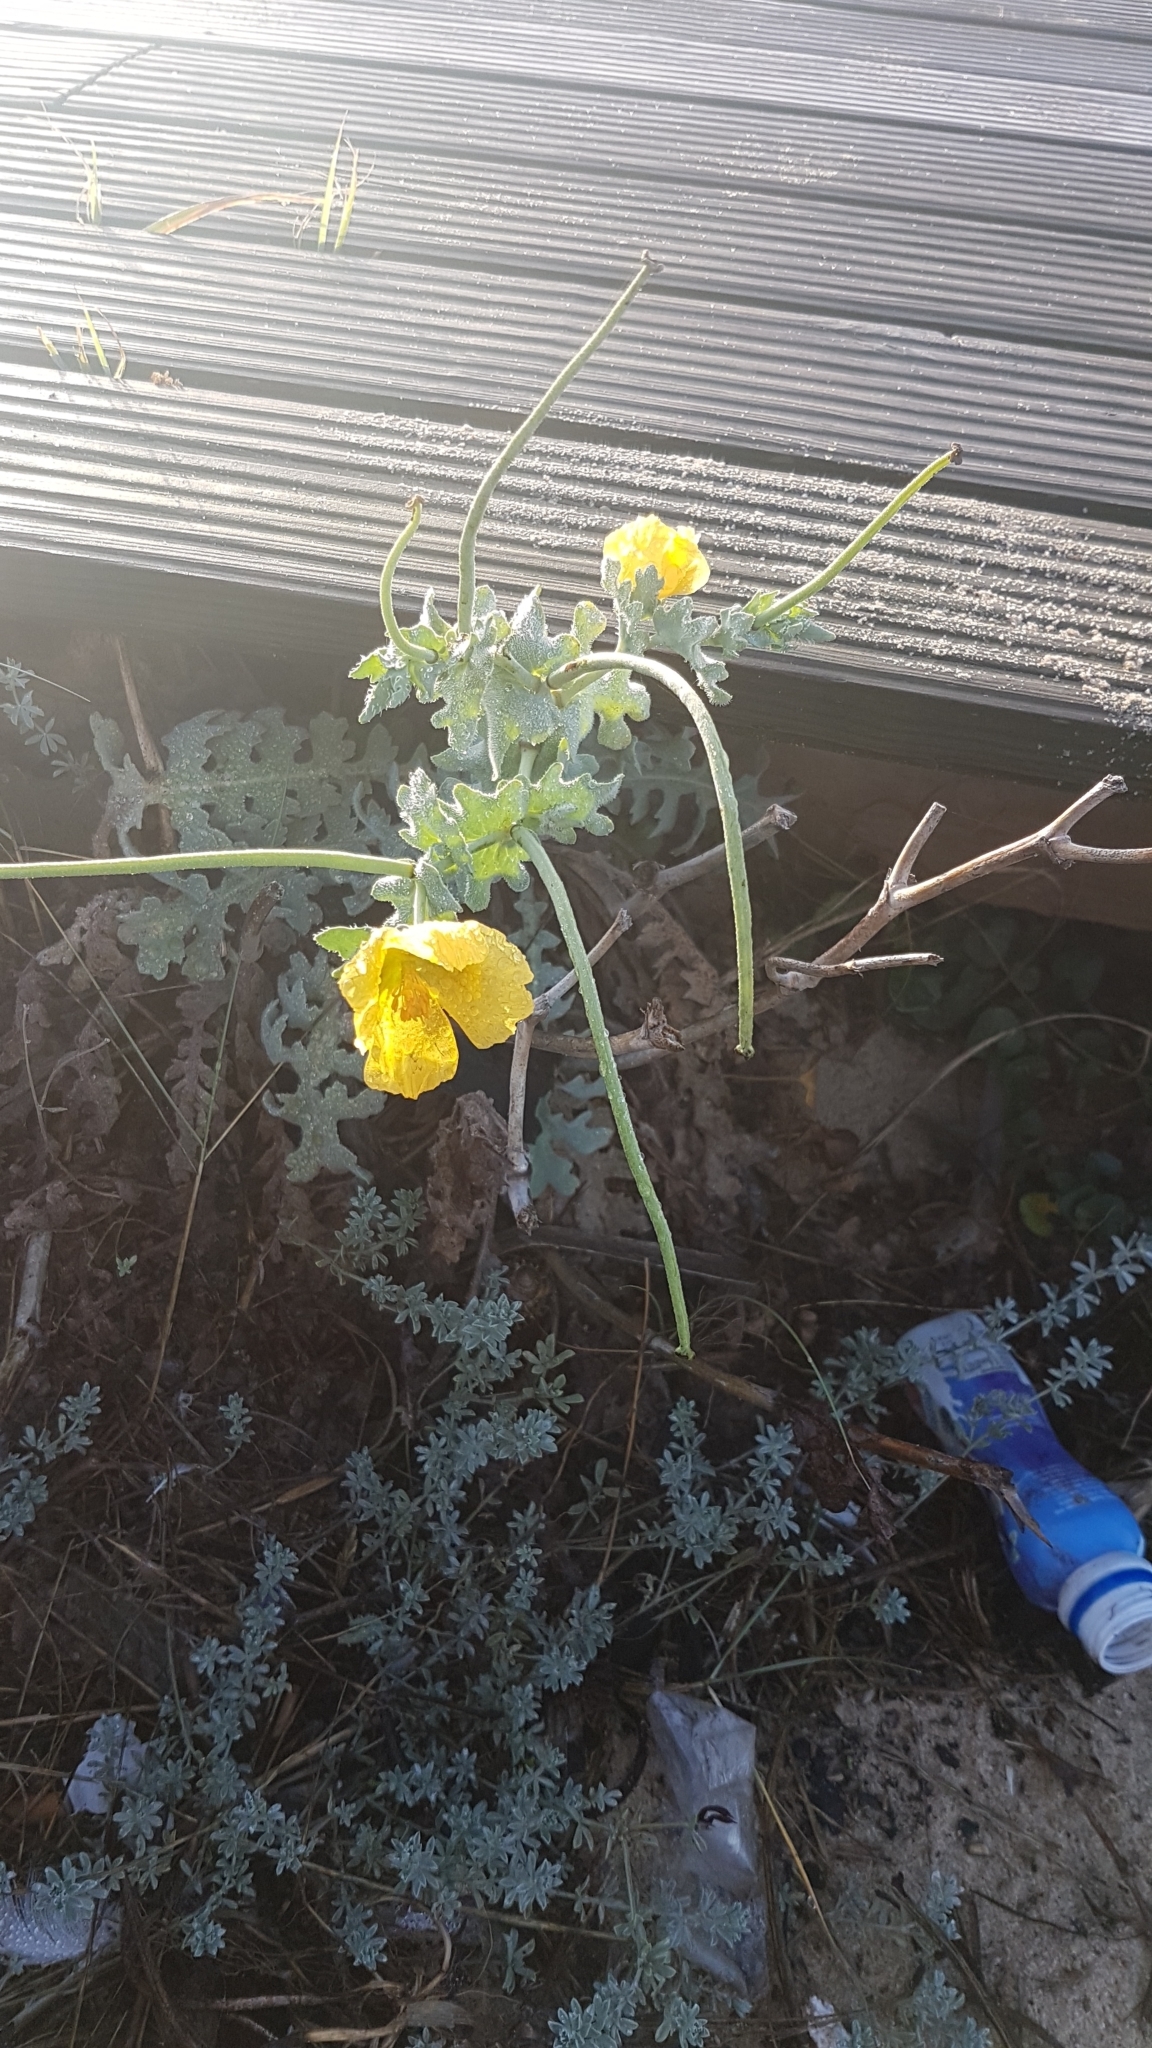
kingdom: Plantae
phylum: Tracheophyta
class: Magnoliopsida
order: Ranunculales
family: Papaveraceae
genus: Glaucium
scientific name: Glaucium flavum
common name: Yellow horned-poppy
